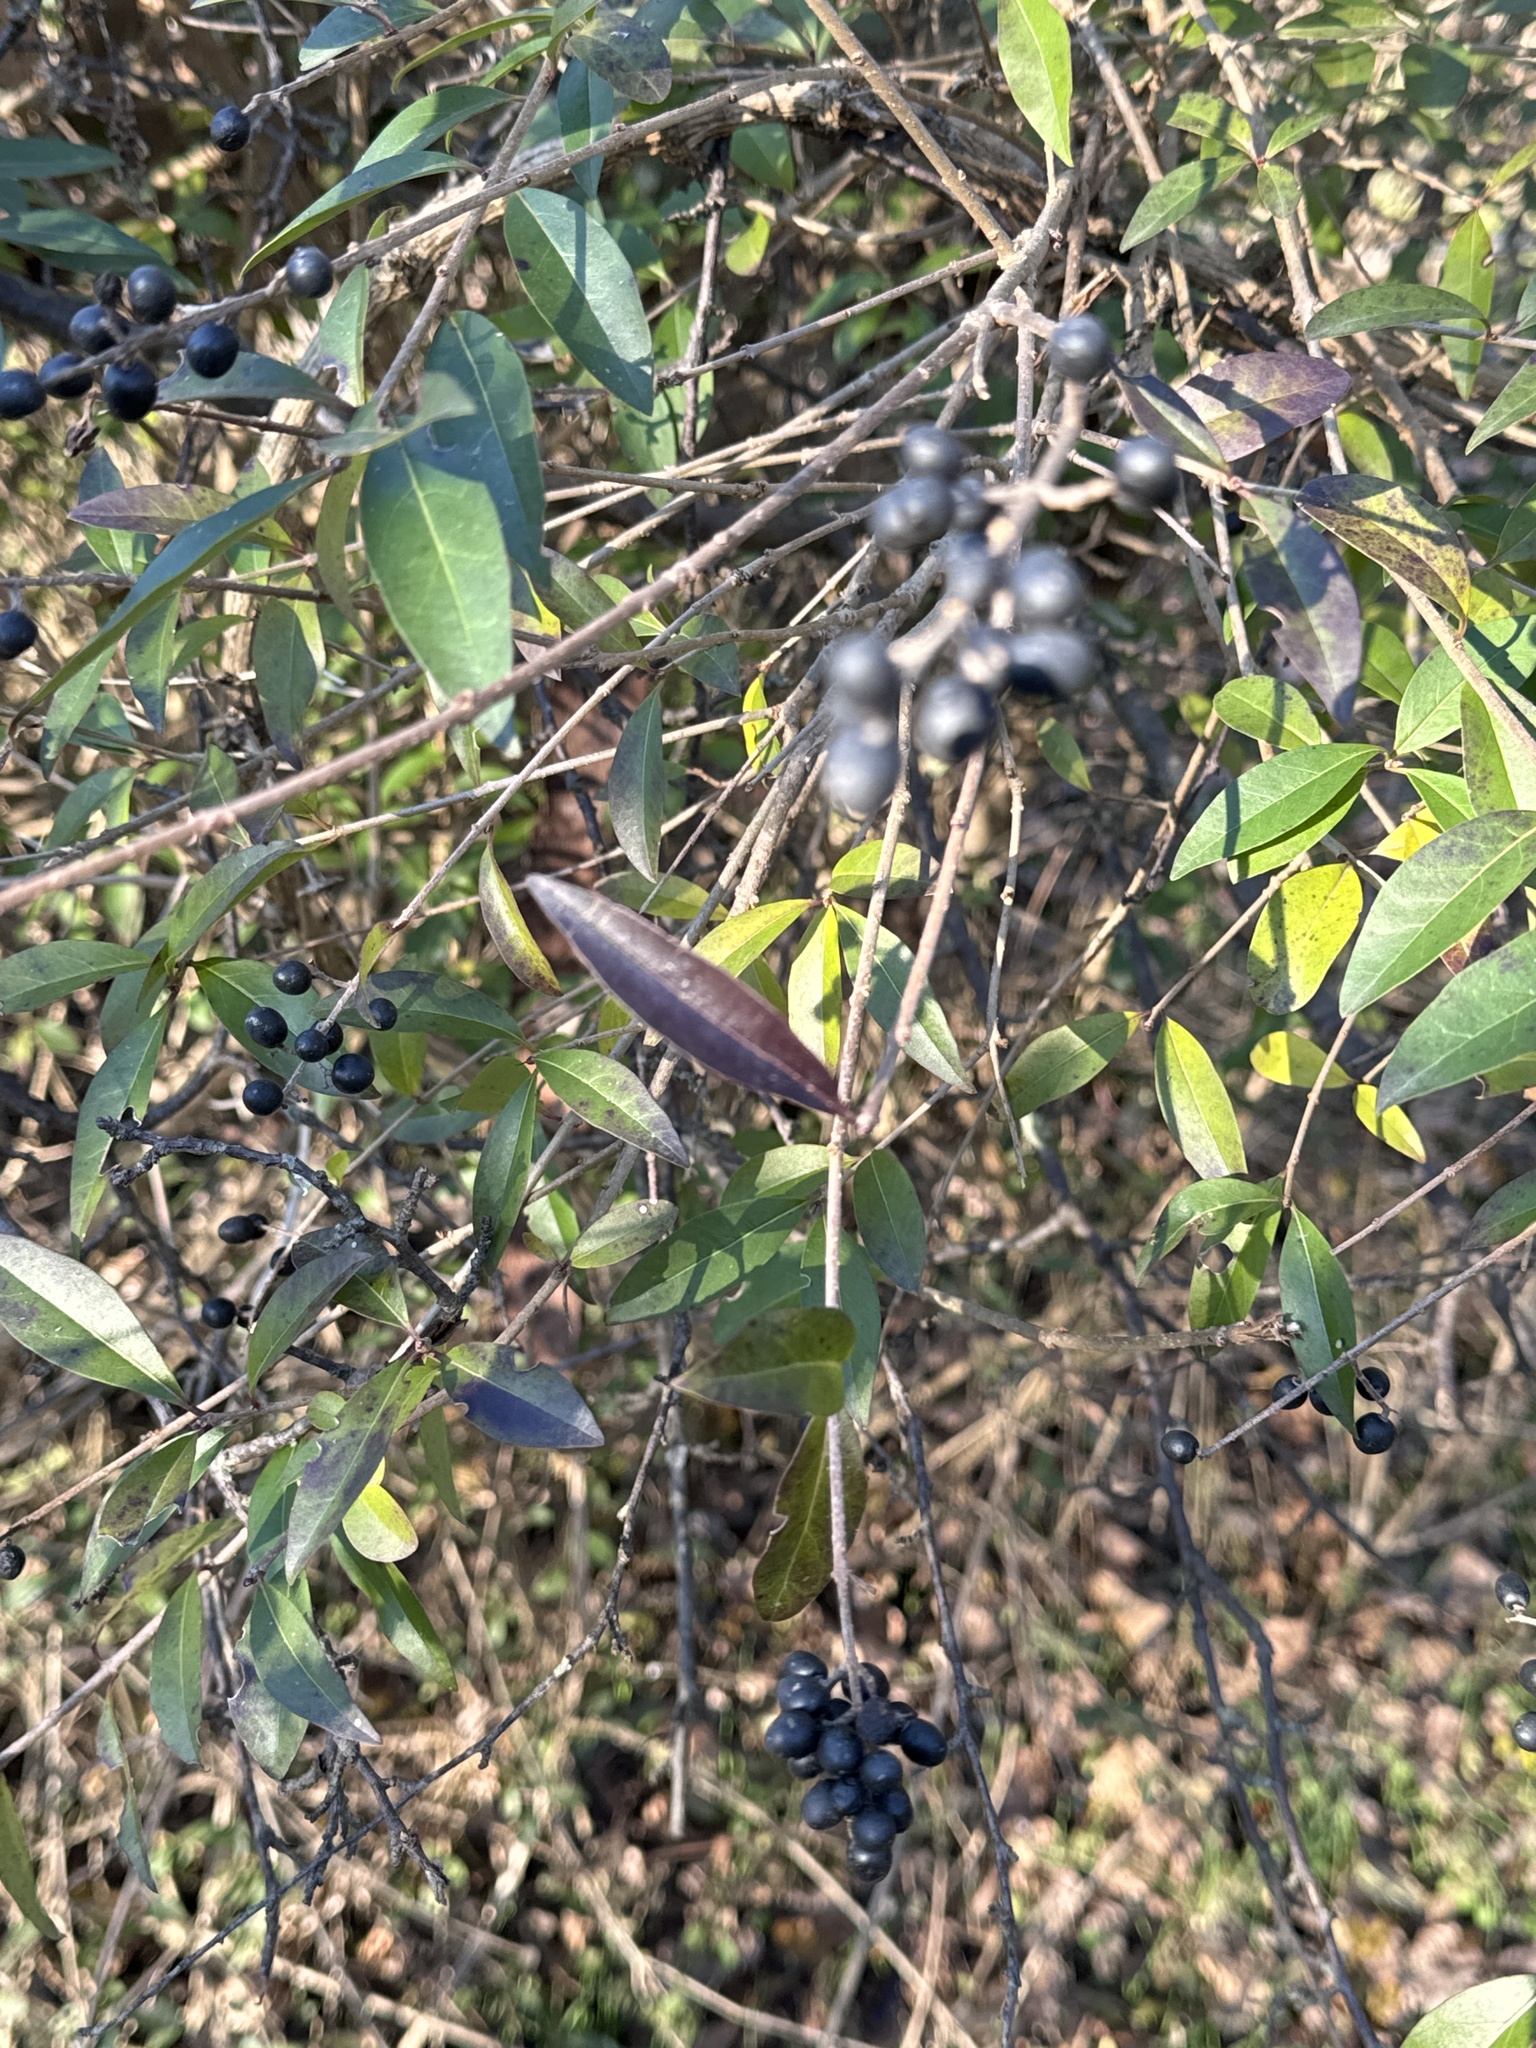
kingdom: Plantae
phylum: Tracheophyta
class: Magnoliopsida
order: Lamiales
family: Oleaceae
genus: Ligustrum
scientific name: Ligustrum vulgare
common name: Wild privet
